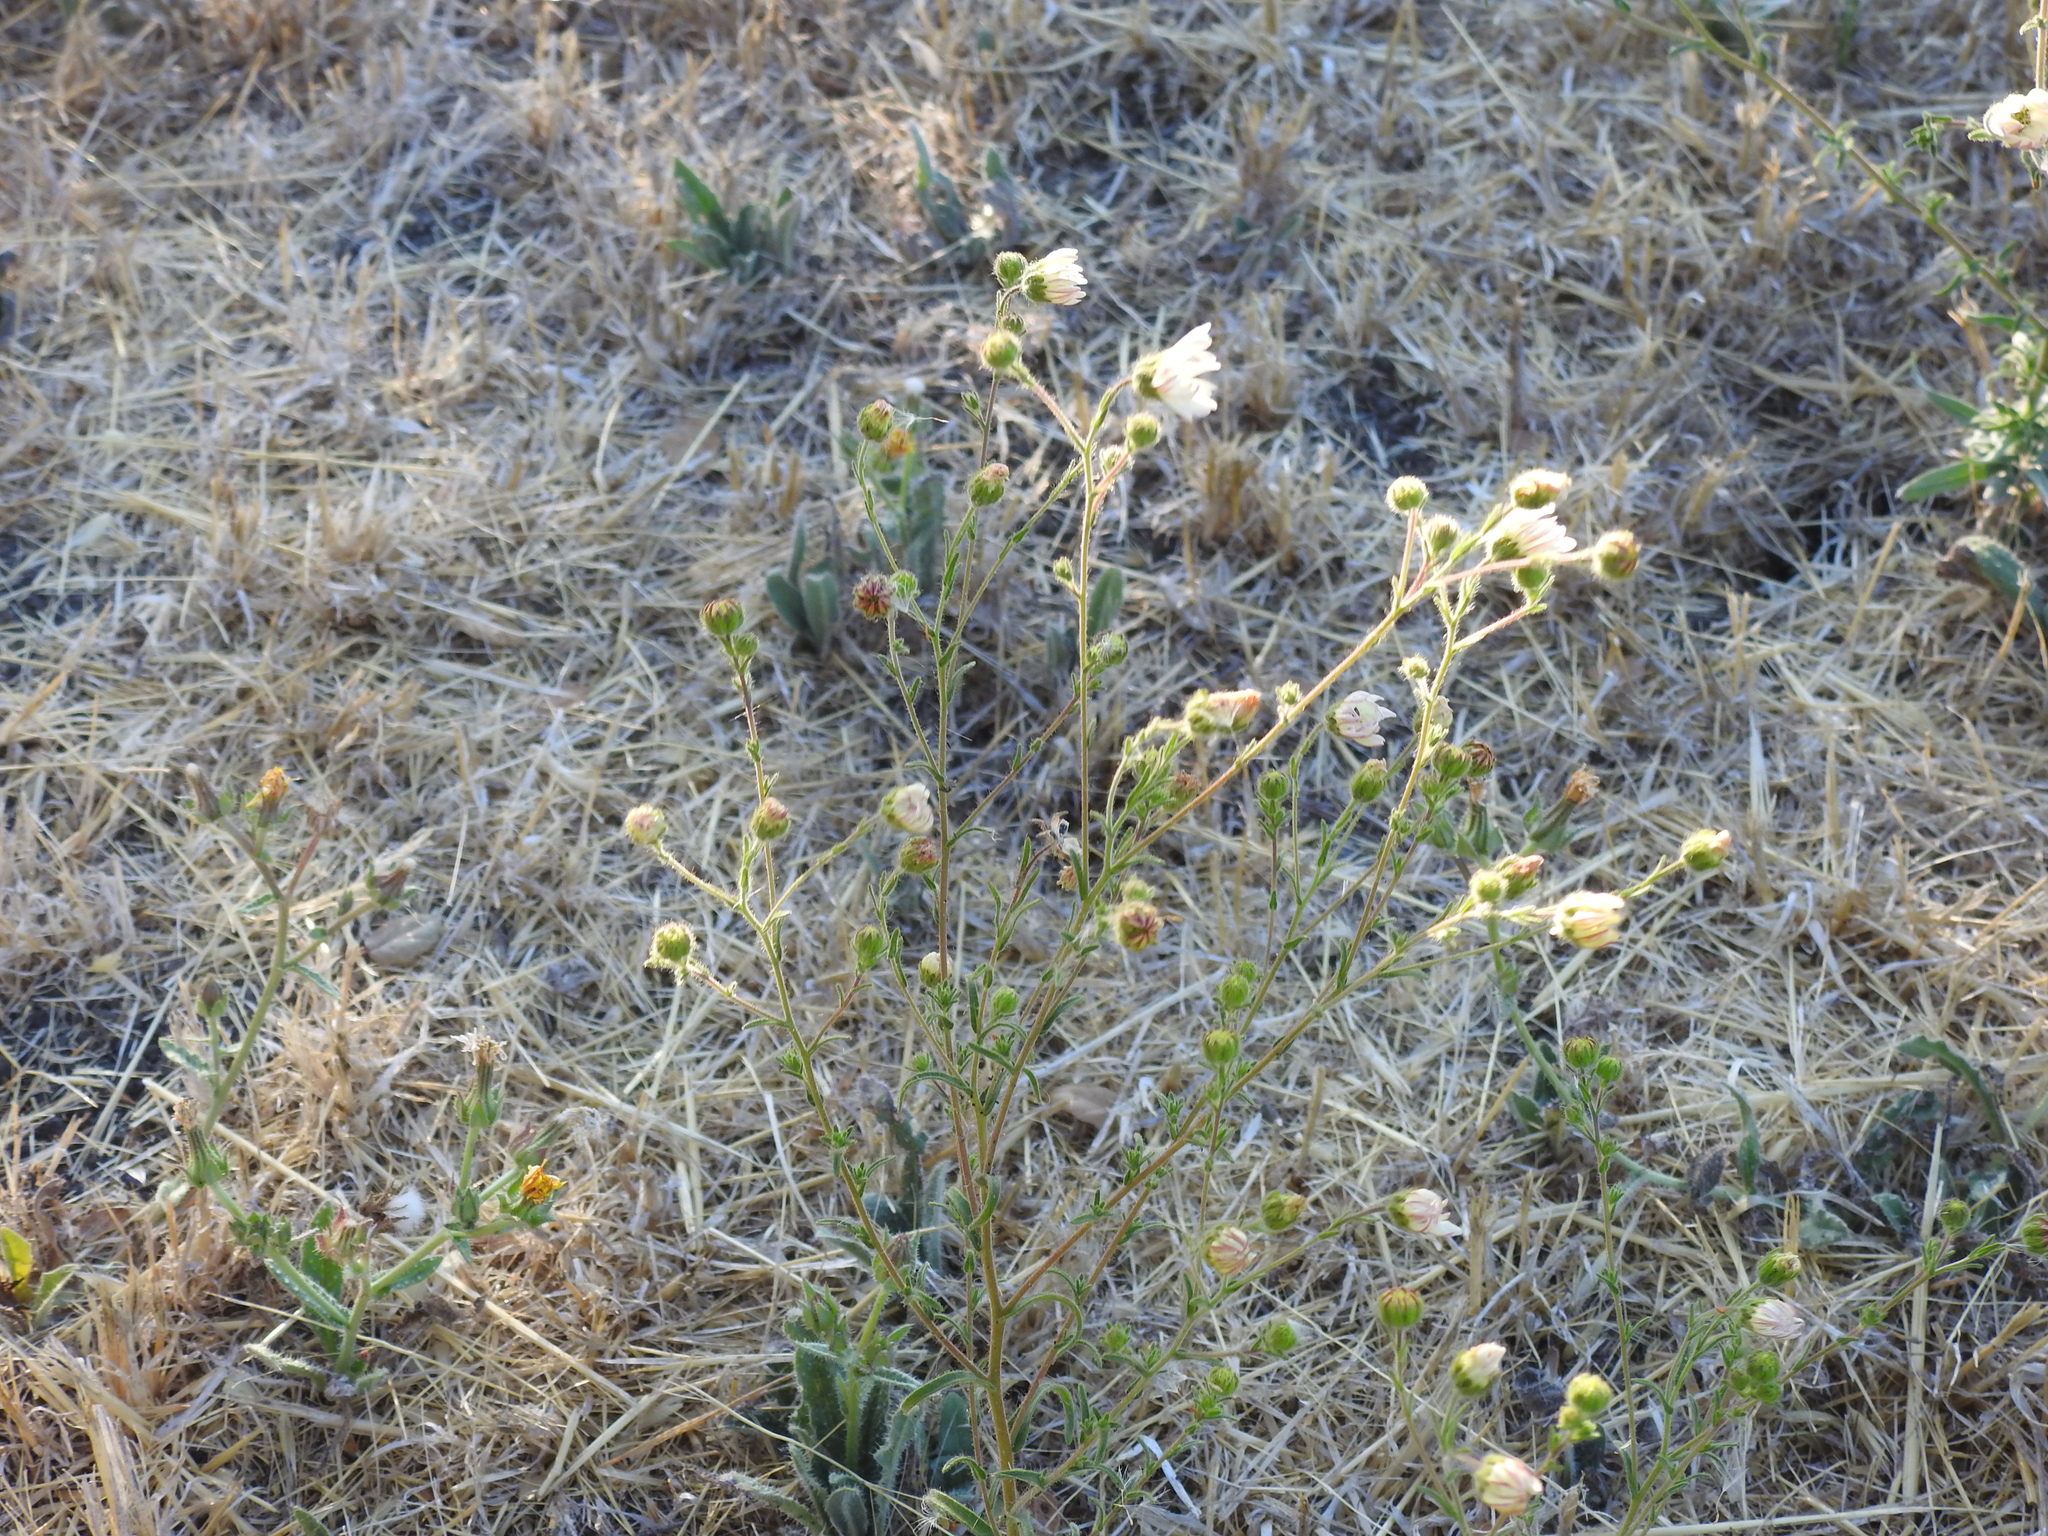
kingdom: Plantae
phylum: Tracheophyta
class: Magnoliopsida
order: Asterales
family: Asteraceae
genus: Hemizonia
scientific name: Hemizonia congesta
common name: Hayfield tarweed
